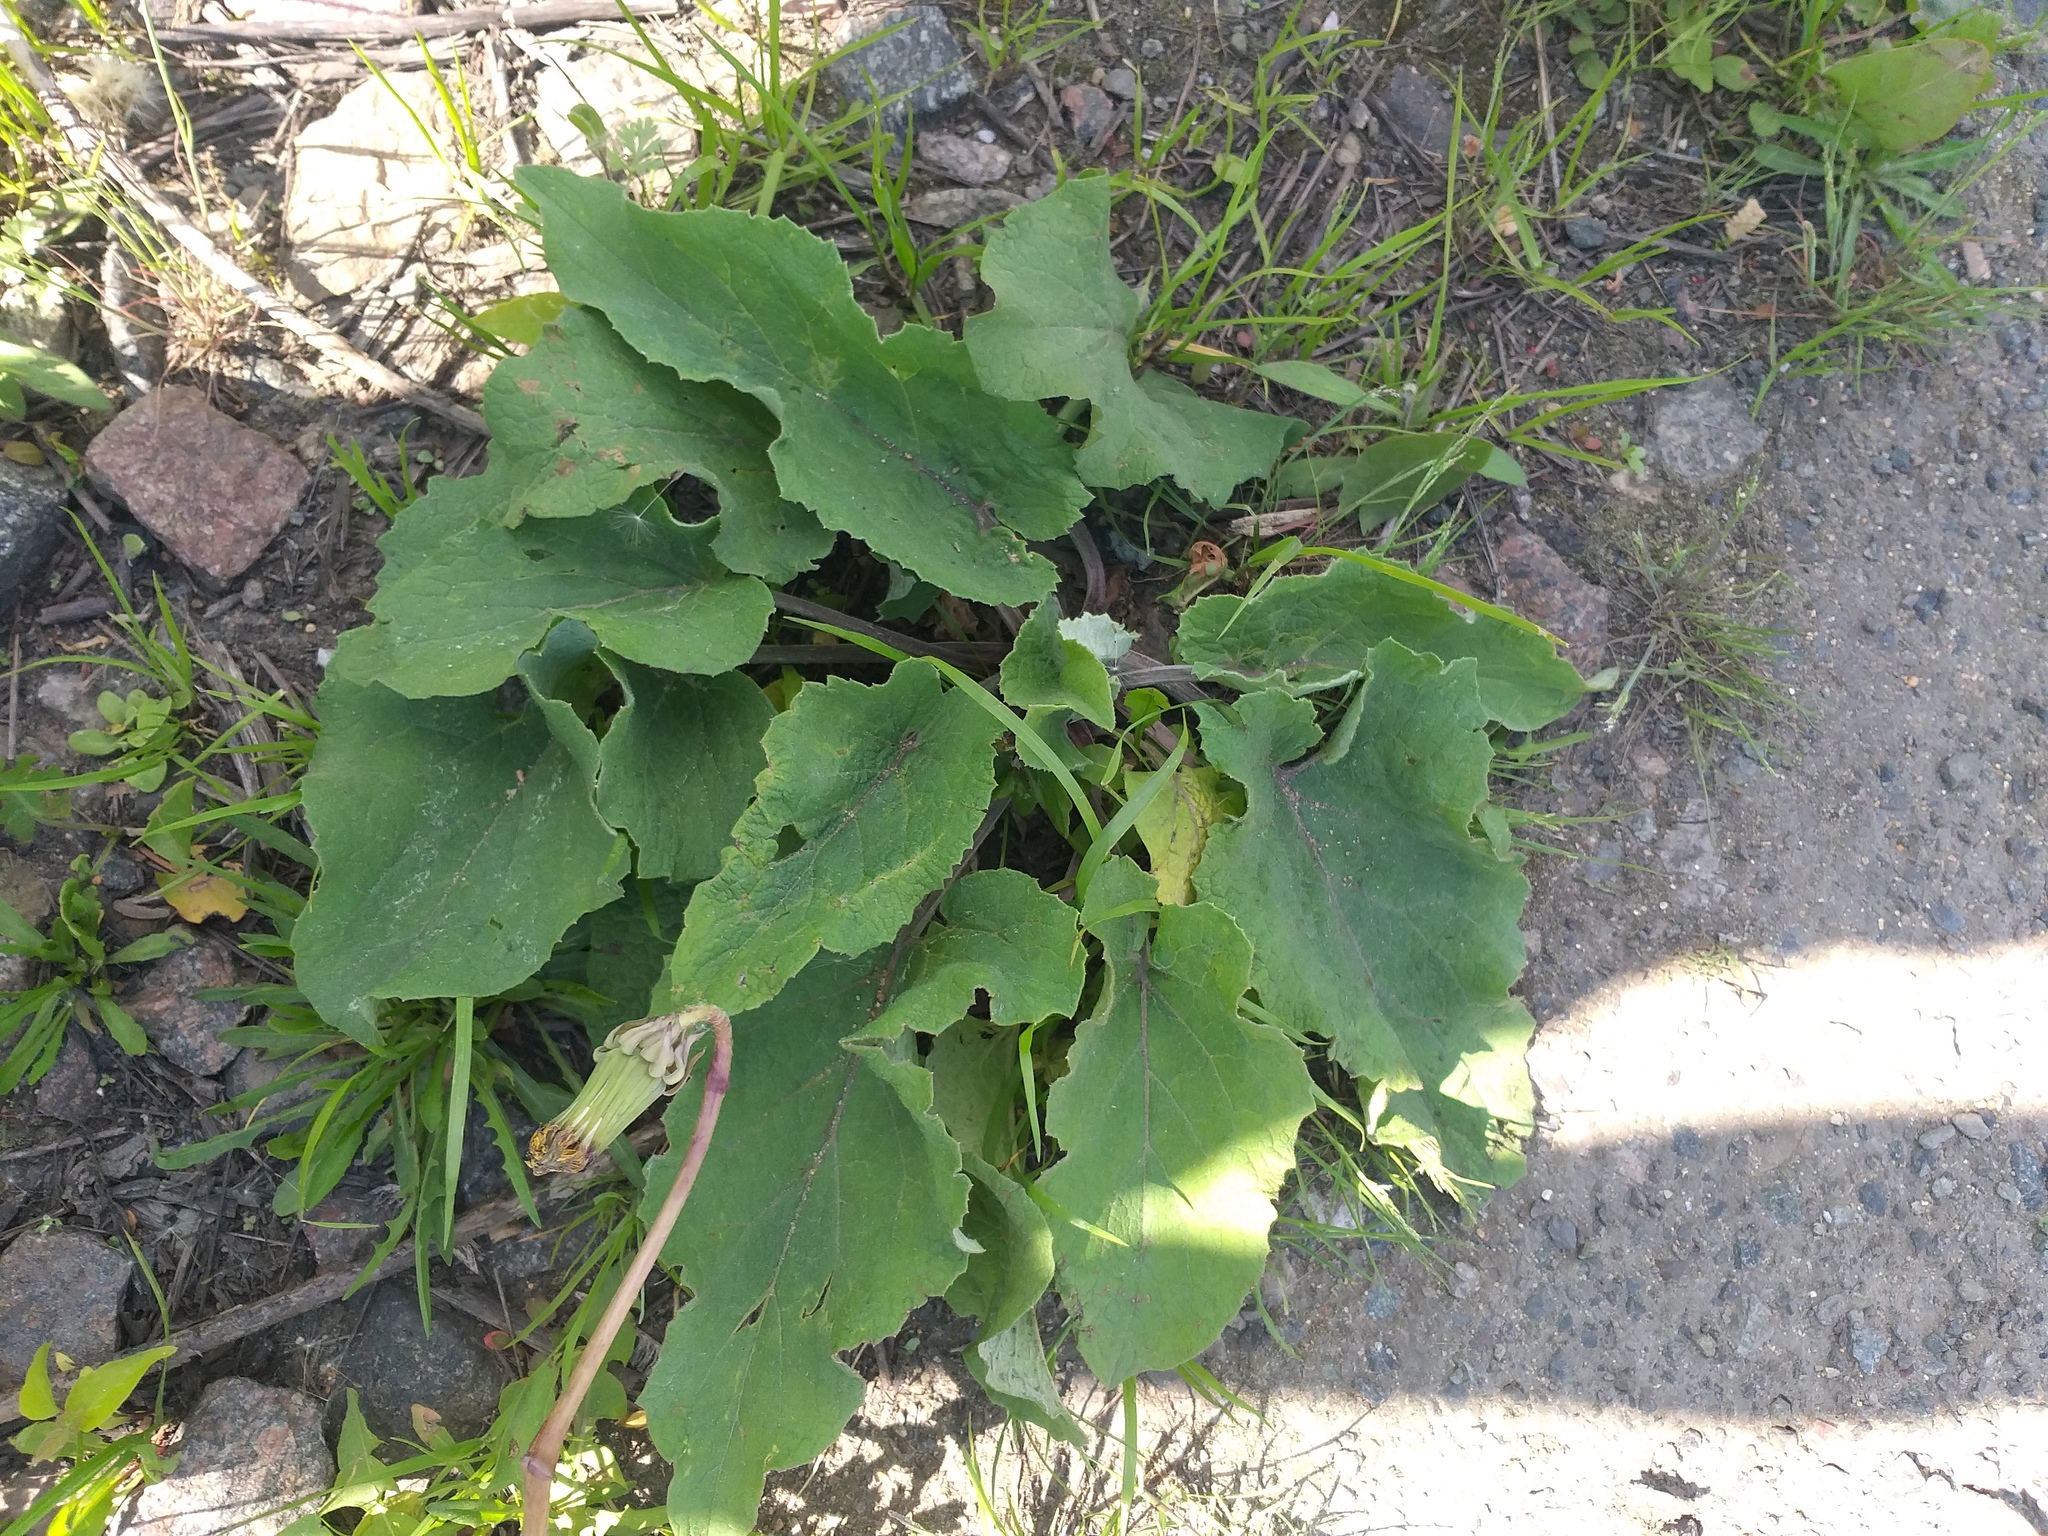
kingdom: Plantae
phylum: Tracheophyta
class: Magnoliopsida
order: Asterales
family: Asteraceae
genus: Arctium
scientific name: Arctium
